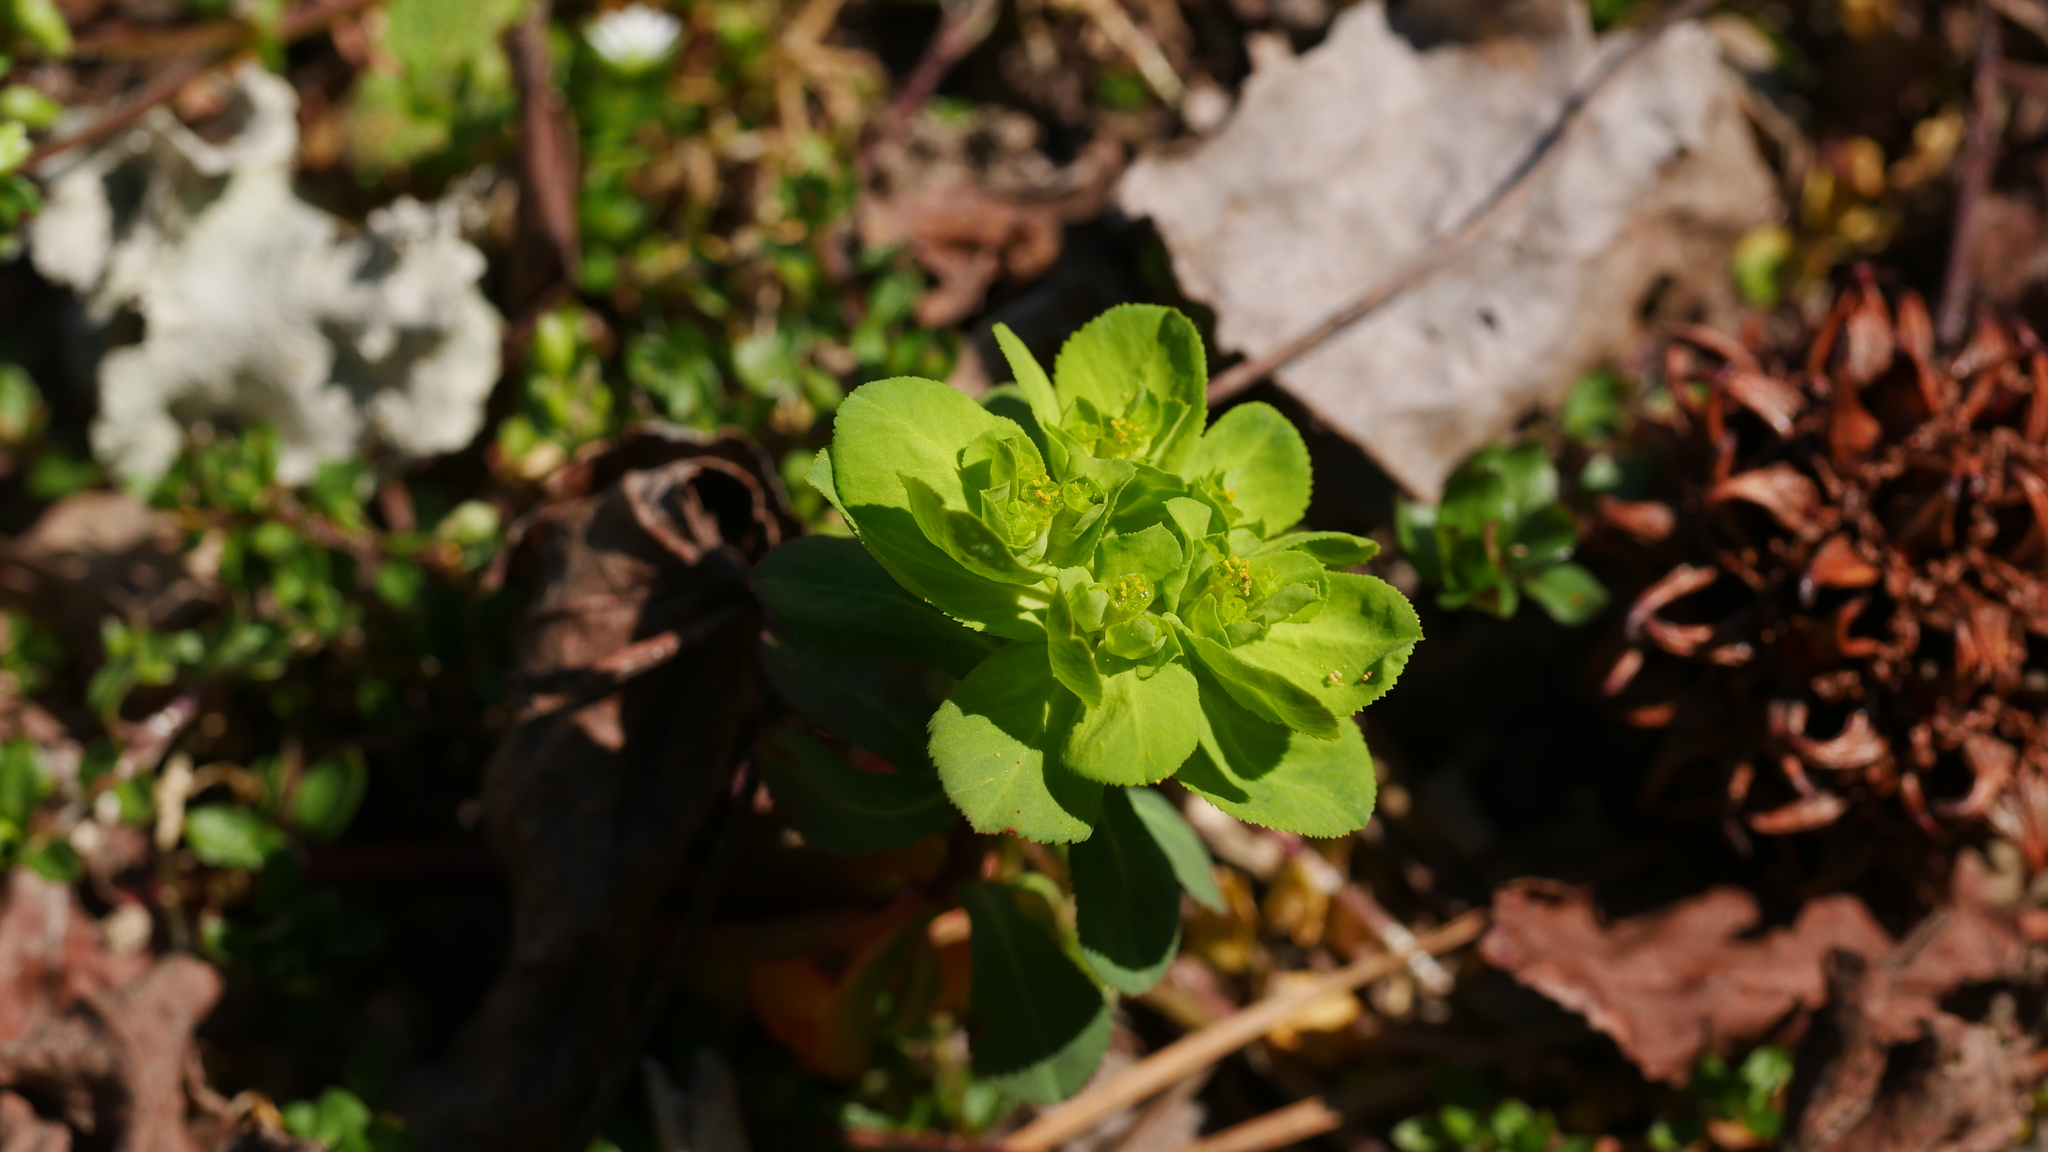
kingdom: Plantae
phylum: Tracheophyta
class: Magnoliopsida
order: Malpighiales
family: Euphorbiaceae
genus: Euphorbia
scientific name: Euphorbia helioscopia
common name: Sun spurge
